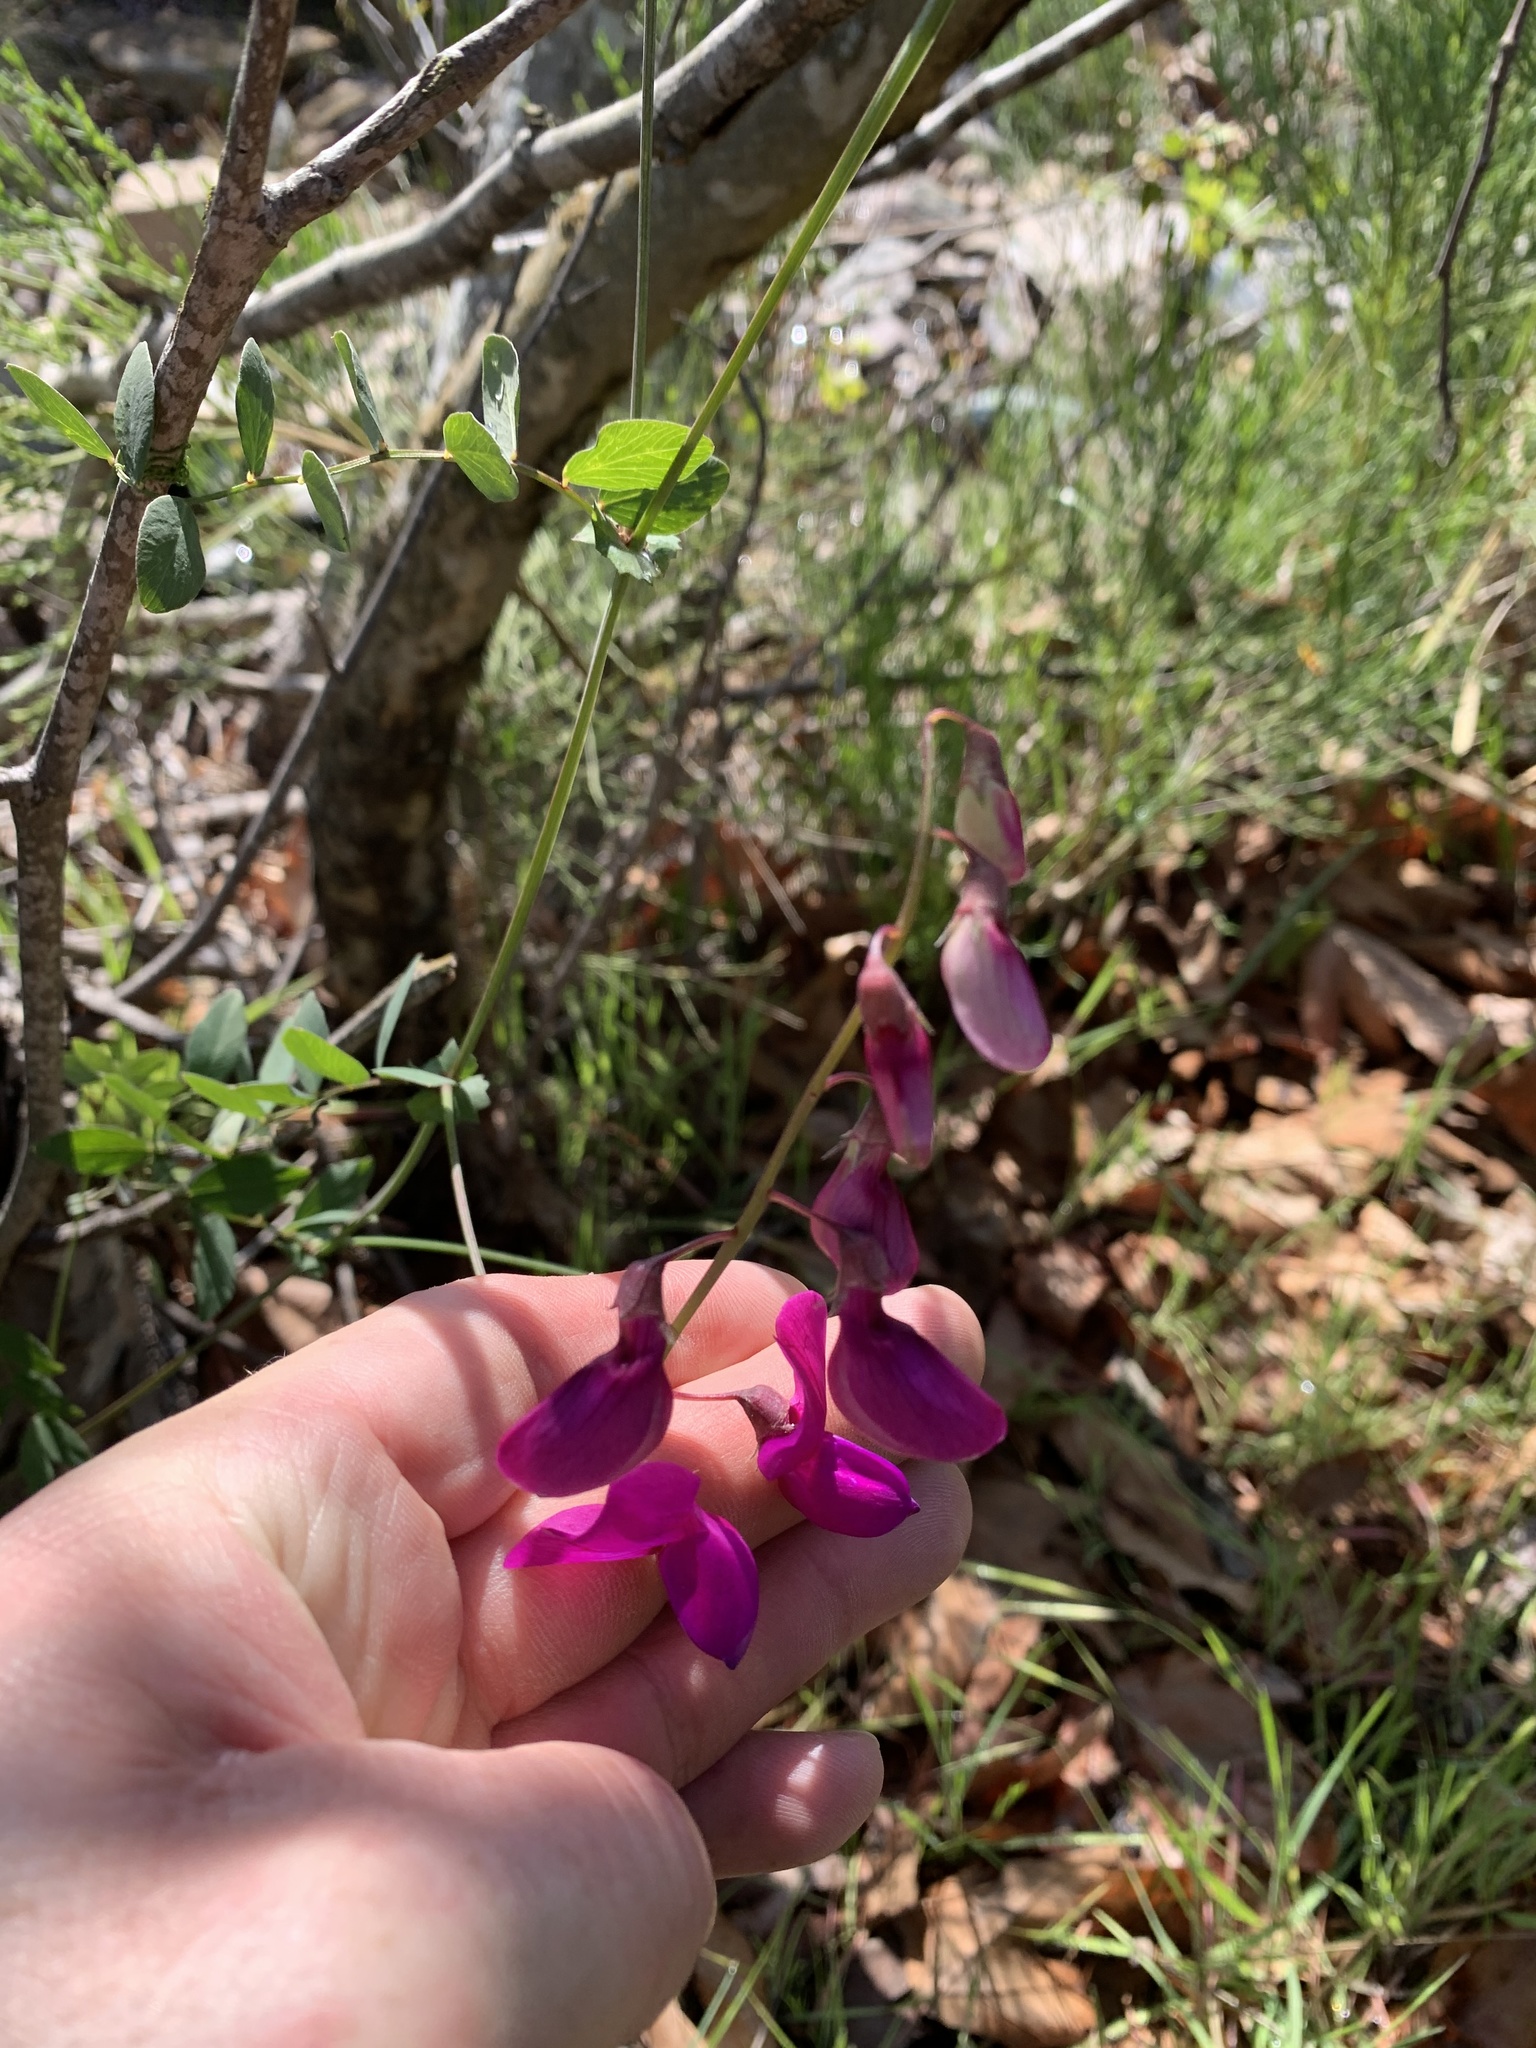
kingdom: Plantae
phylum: Tracheophyta
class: Magnoliopsida
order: Fabales
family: Fabaceae
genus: Lathyrus
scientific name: Lathyrus vestitus
